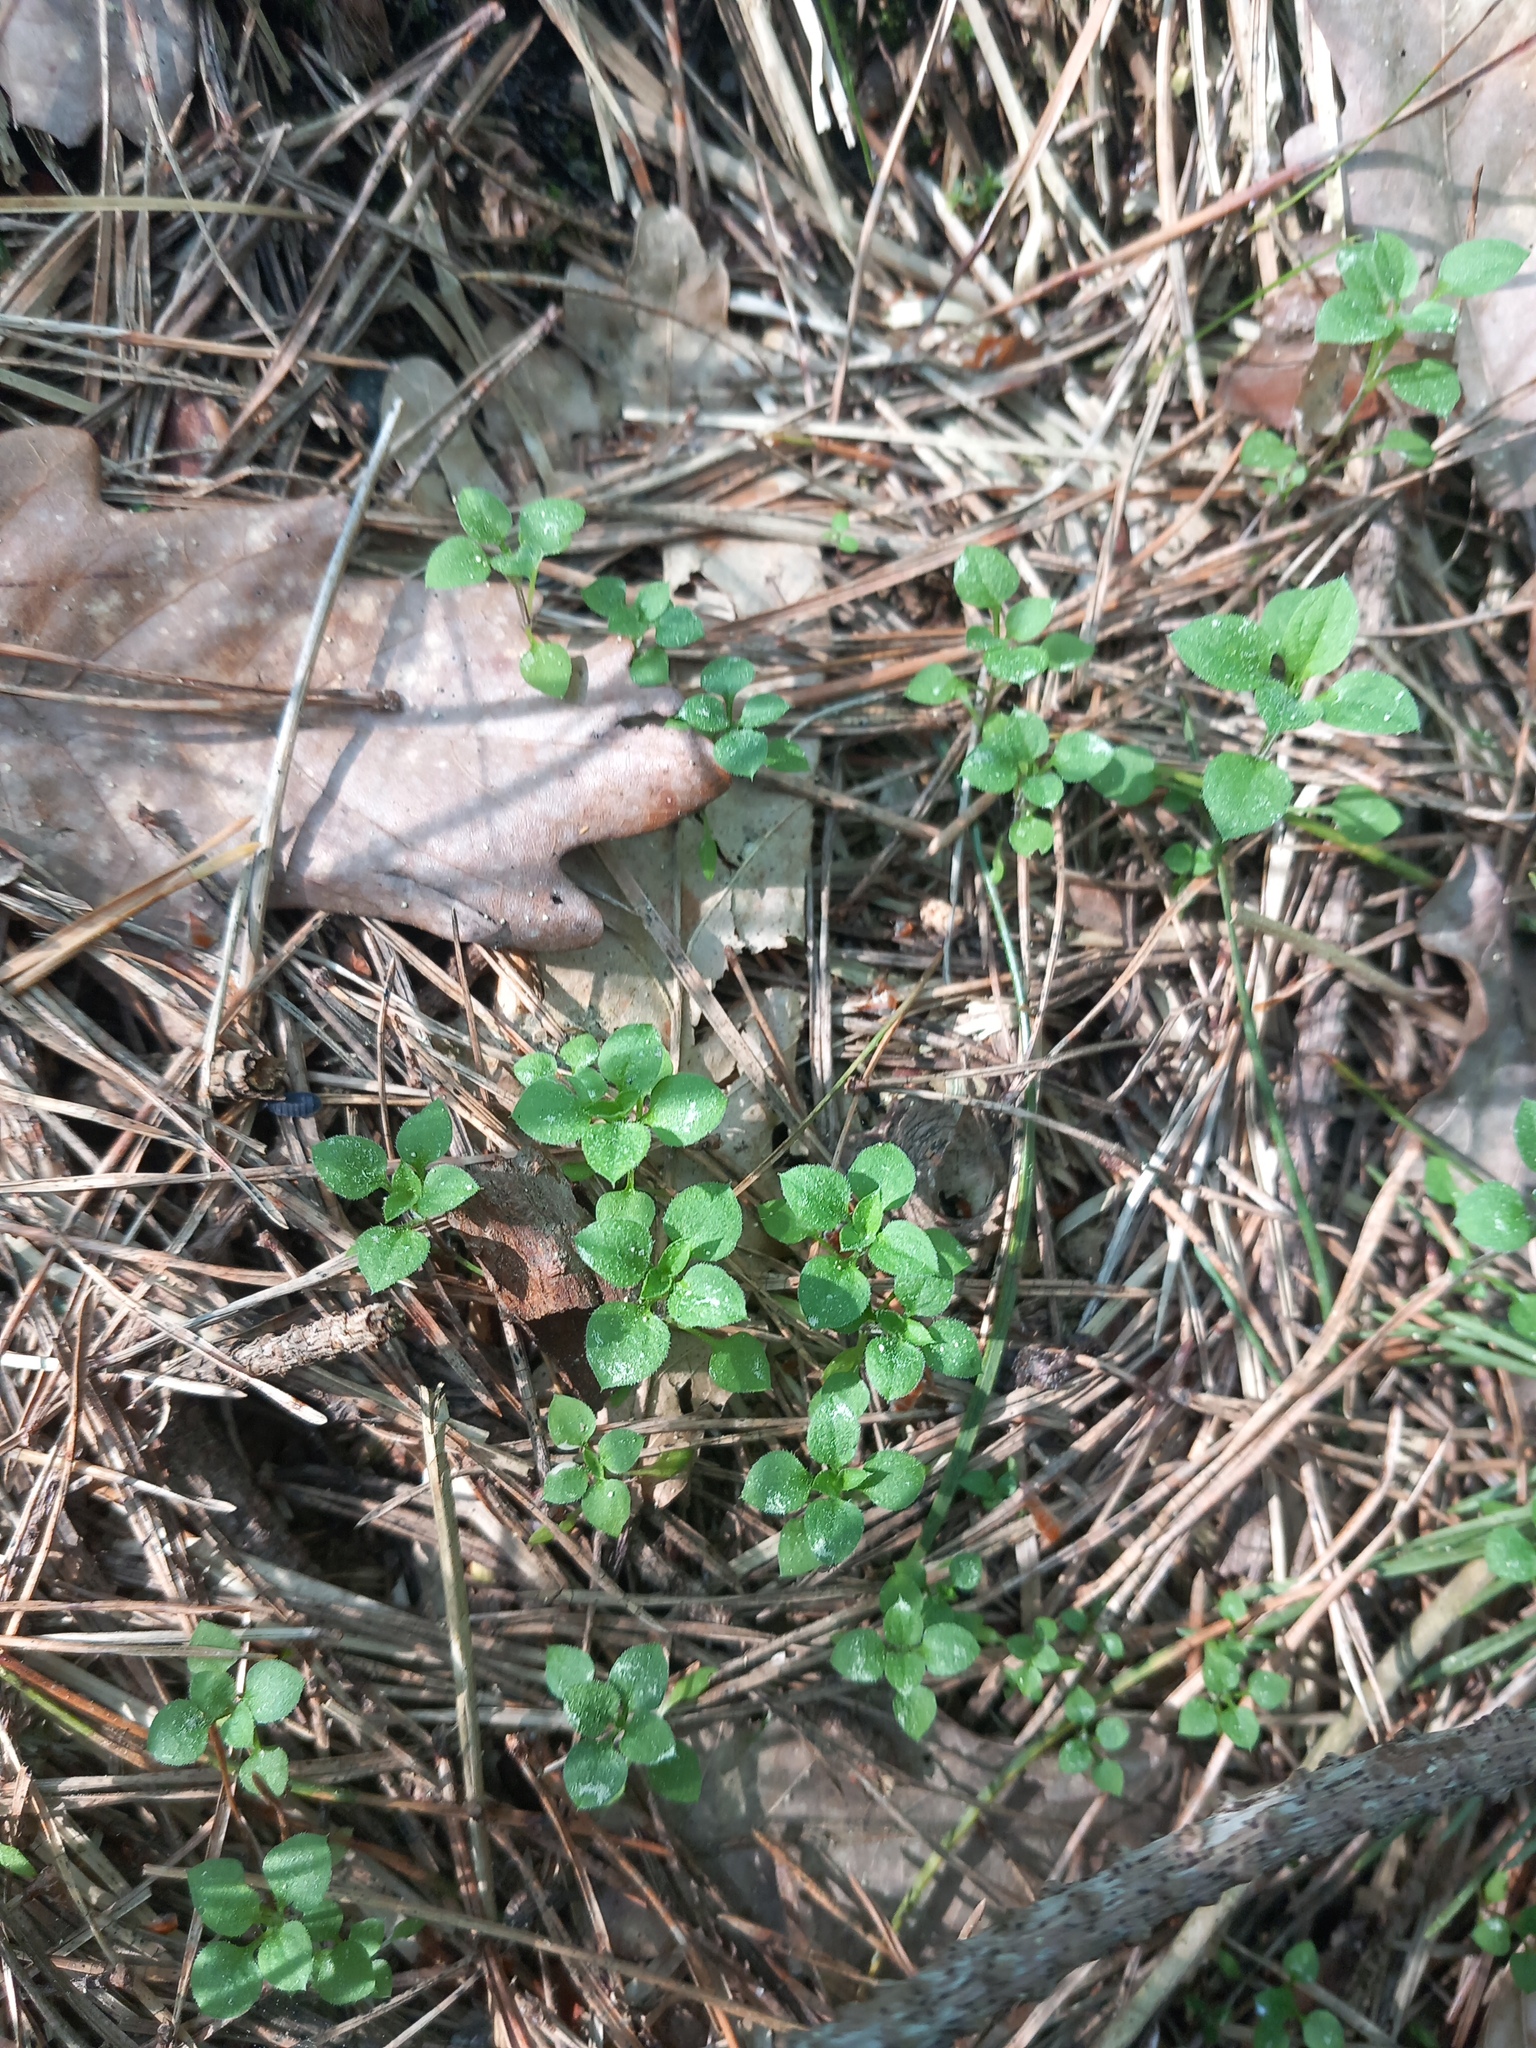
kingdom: Plantae
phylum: Tracheophyta
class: Magnoliopsida
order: Caryophyllales
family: Caryophyllaceae
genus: Moehringia
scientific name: Moehringia trinervia
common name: Three-nerved sandwort
